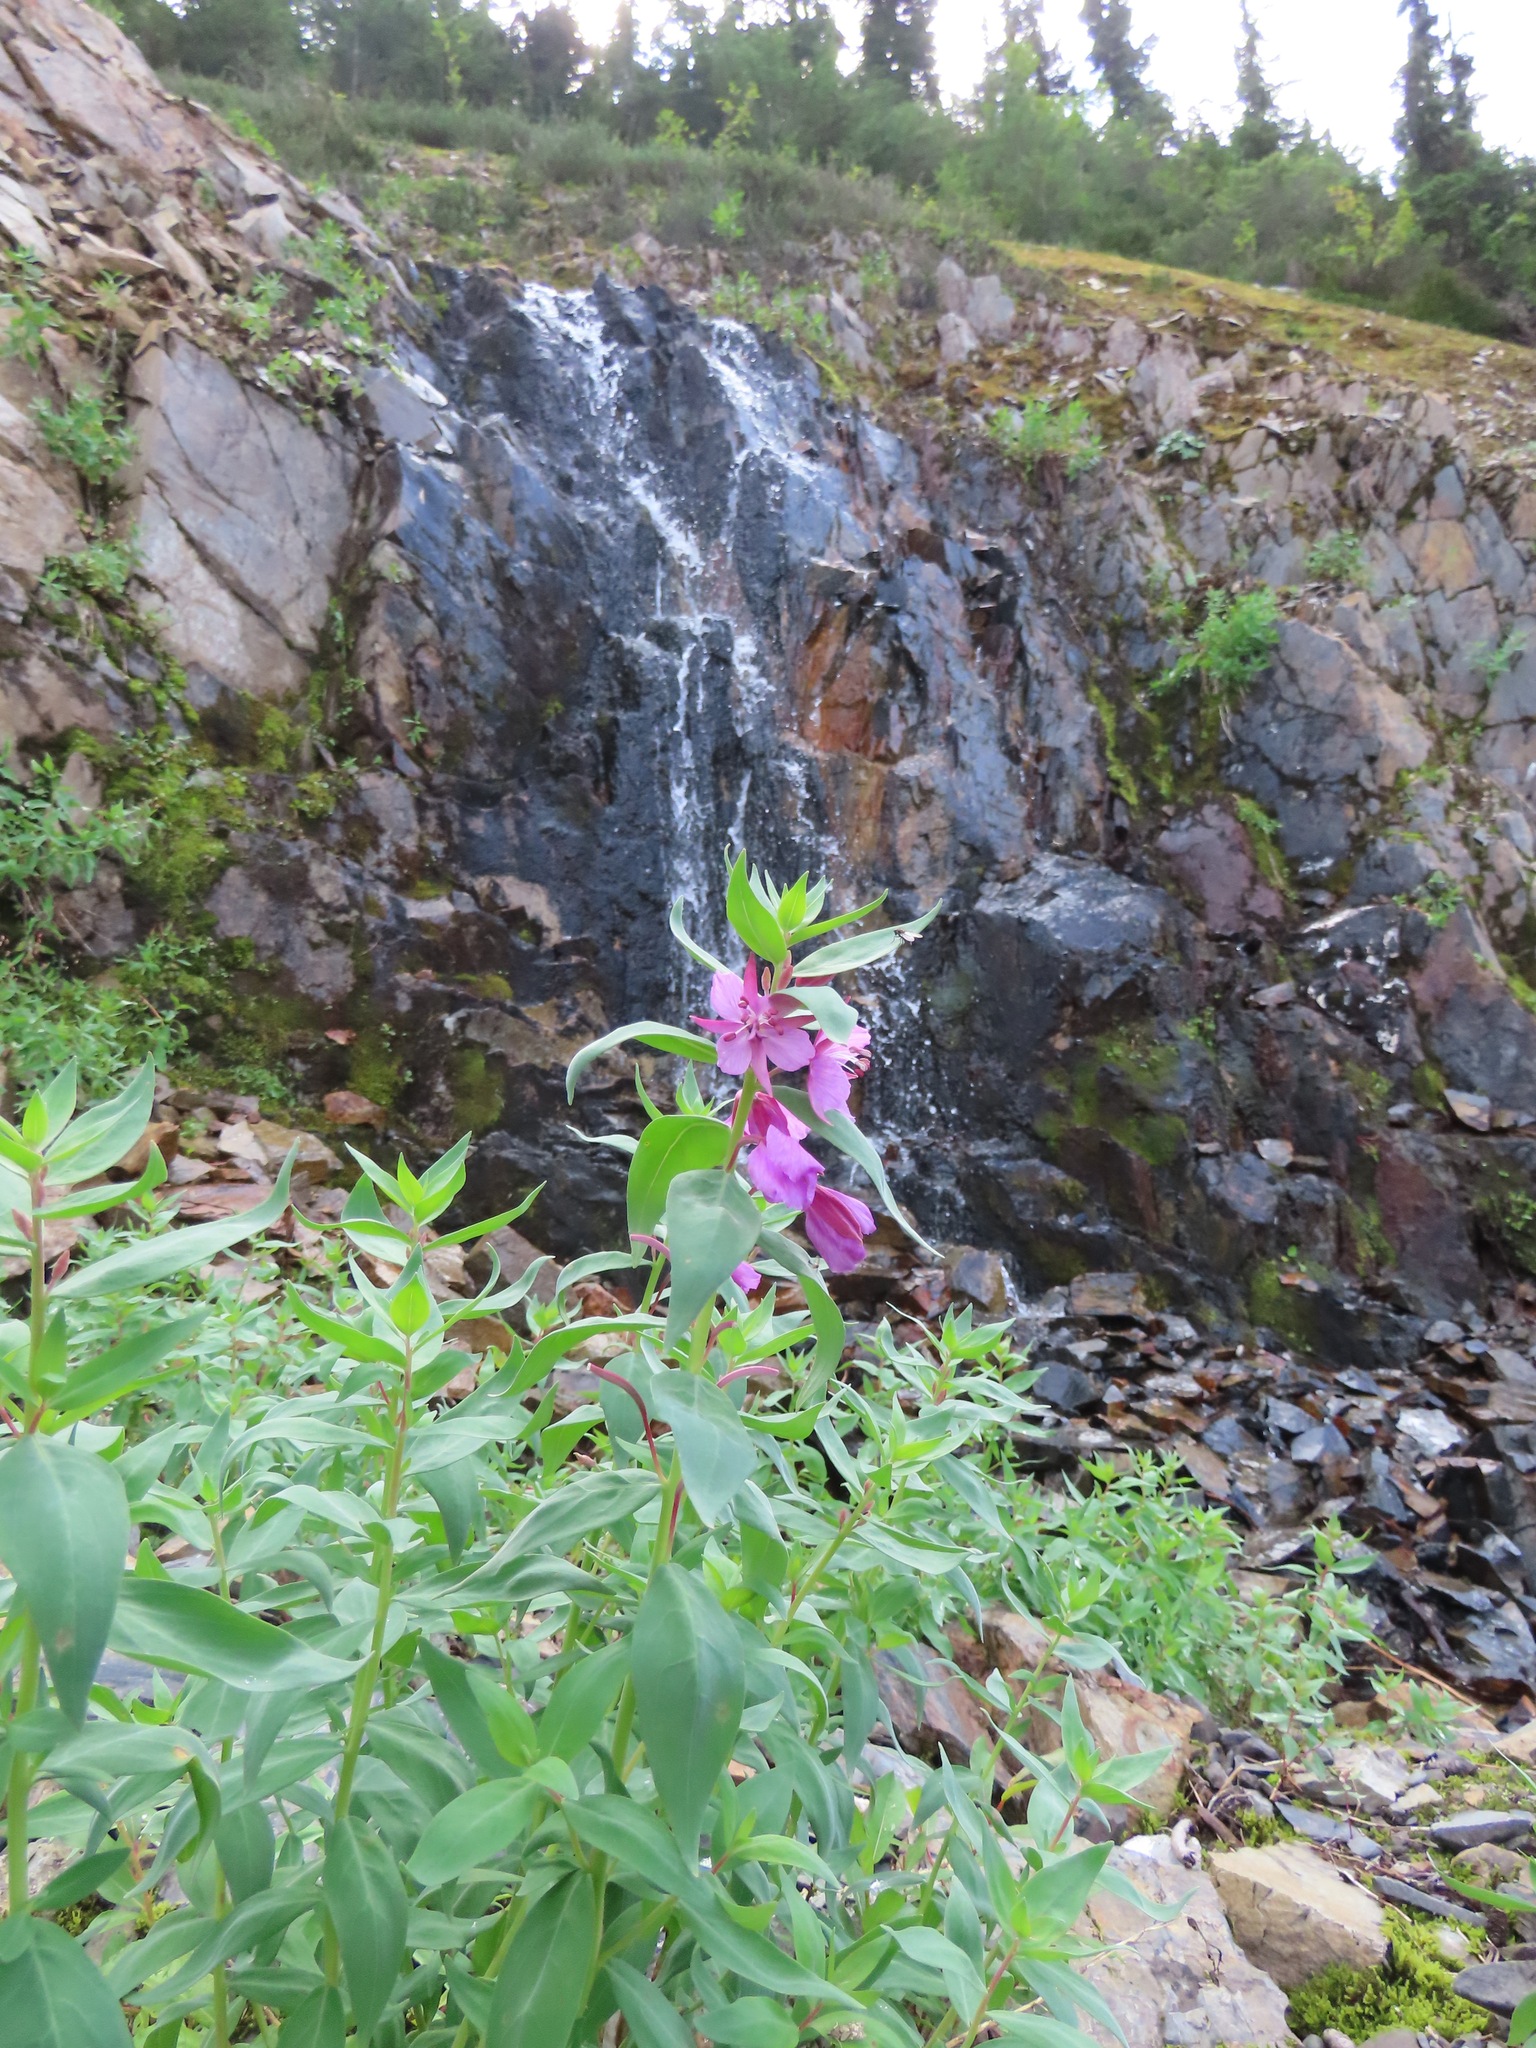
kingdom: Plantae
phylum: Tracheophyta
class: Magnoliopsida
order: Myrtales
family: Onagraceae
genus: Chamaenerion
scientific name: Chamaenerion latifolium
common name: Dwarf fireweed
